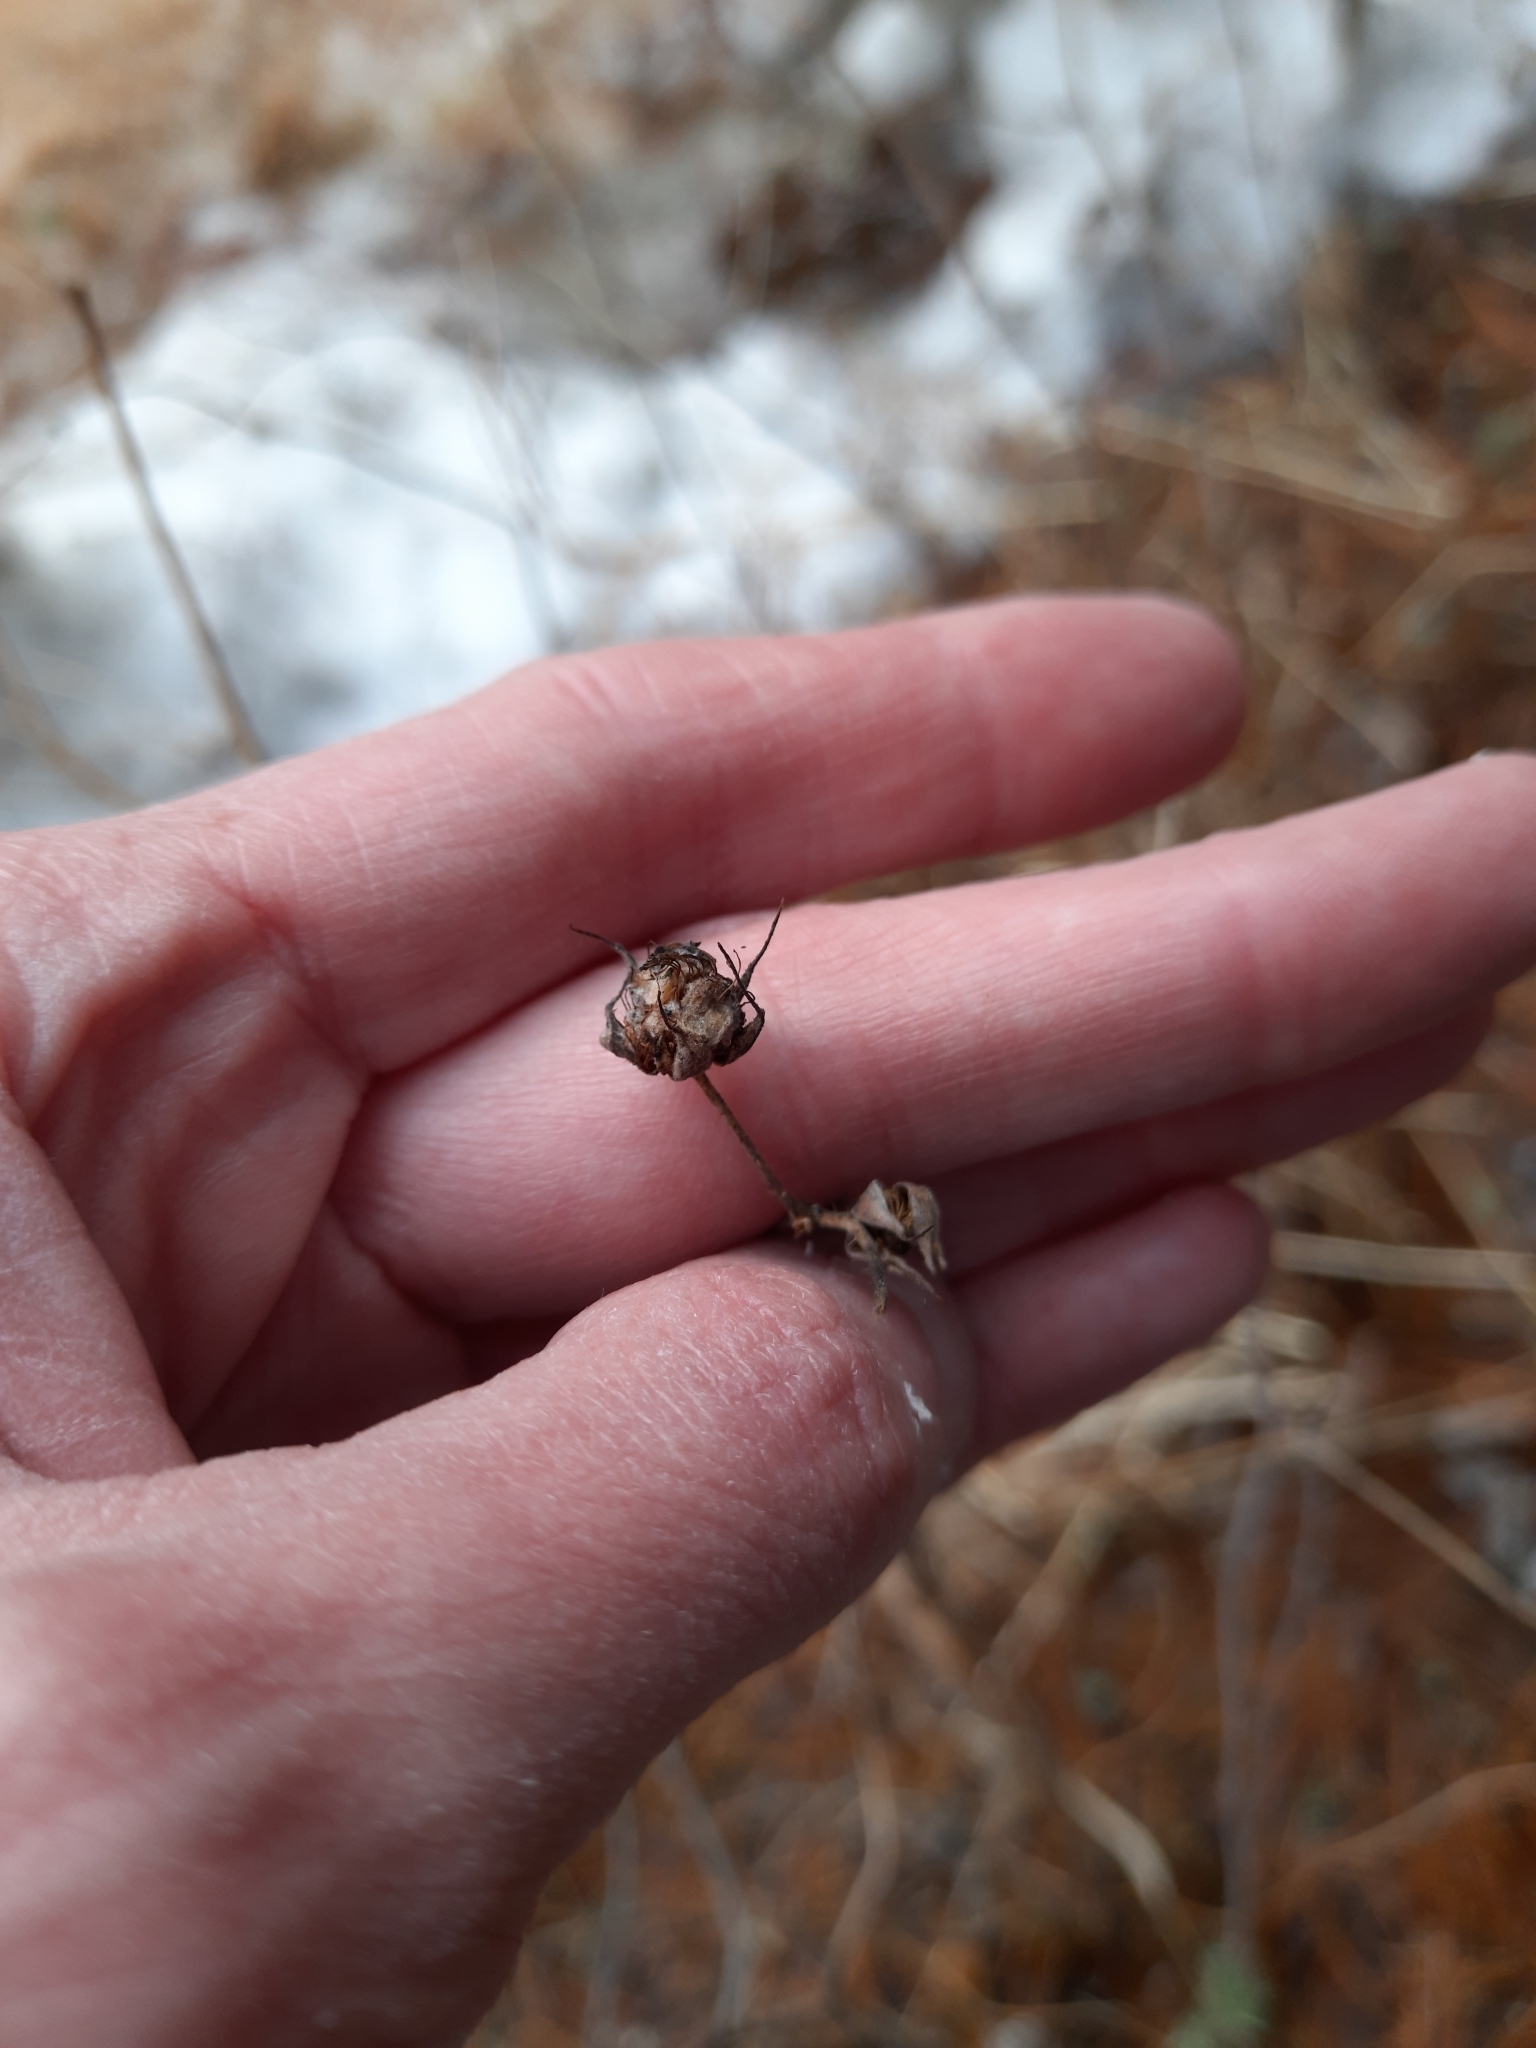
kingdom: Plantae
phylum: Tracheophyta
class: Magnoliopsida
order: Rosales
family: Rosaceae
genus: Rubus
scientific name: Rubus idaeus
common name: Raspberry
